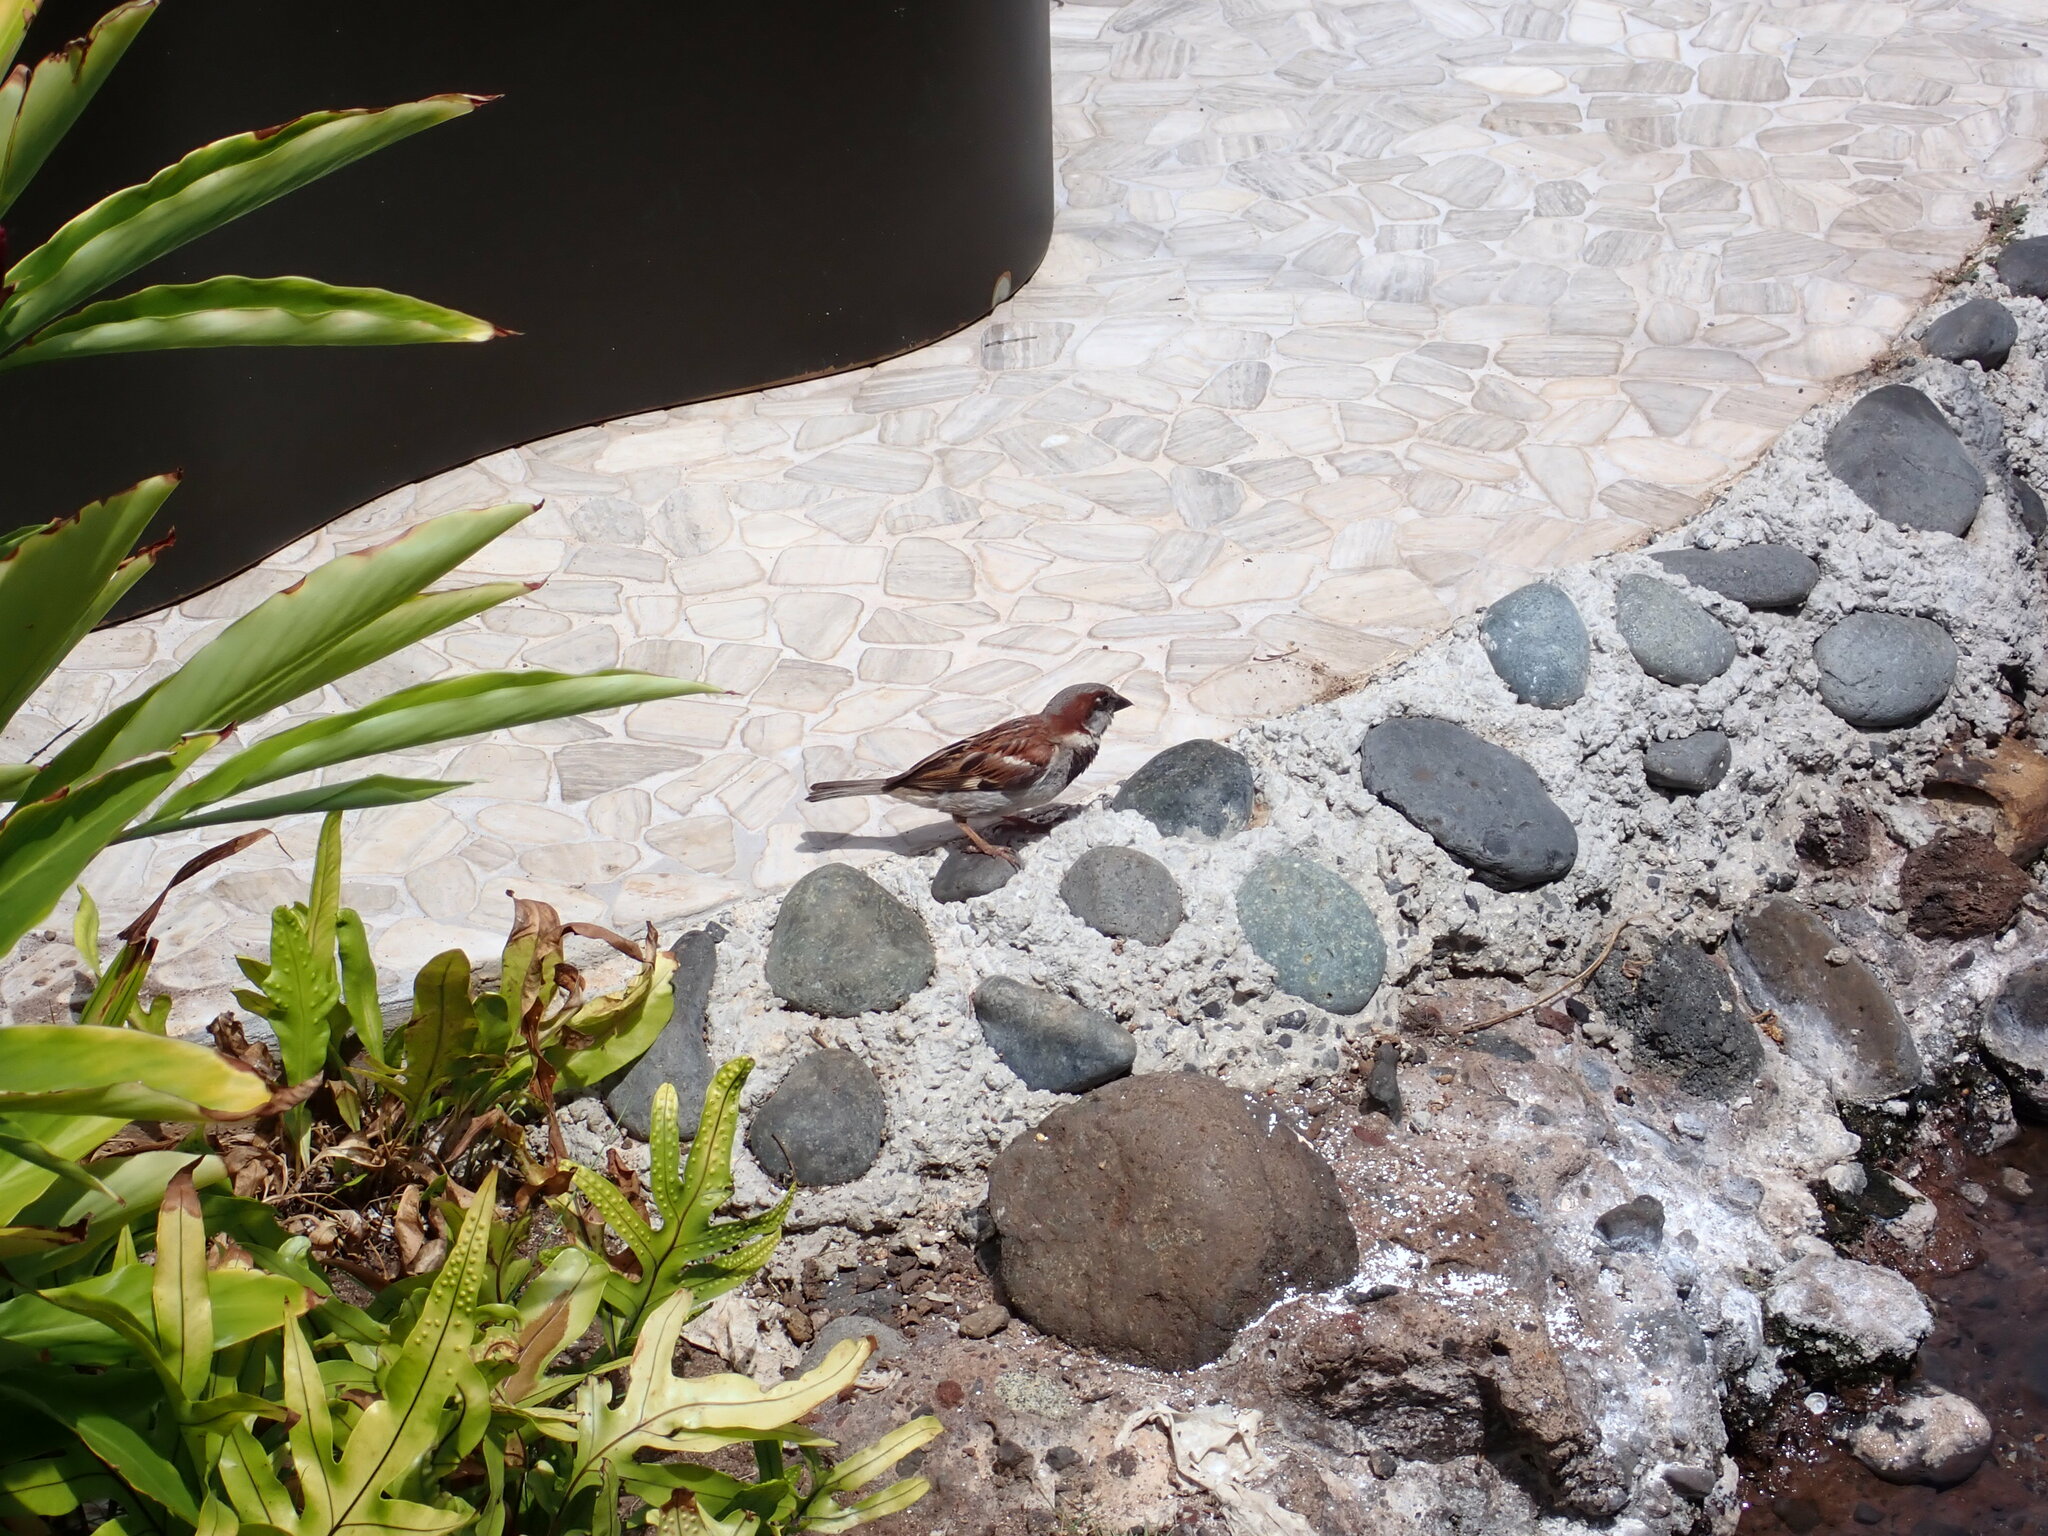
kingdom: Animalia
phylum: Chordata
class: Aves
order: Passeriformes
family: Passeridae
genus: Passer
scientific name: Passer domesticus
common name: House sparrow
